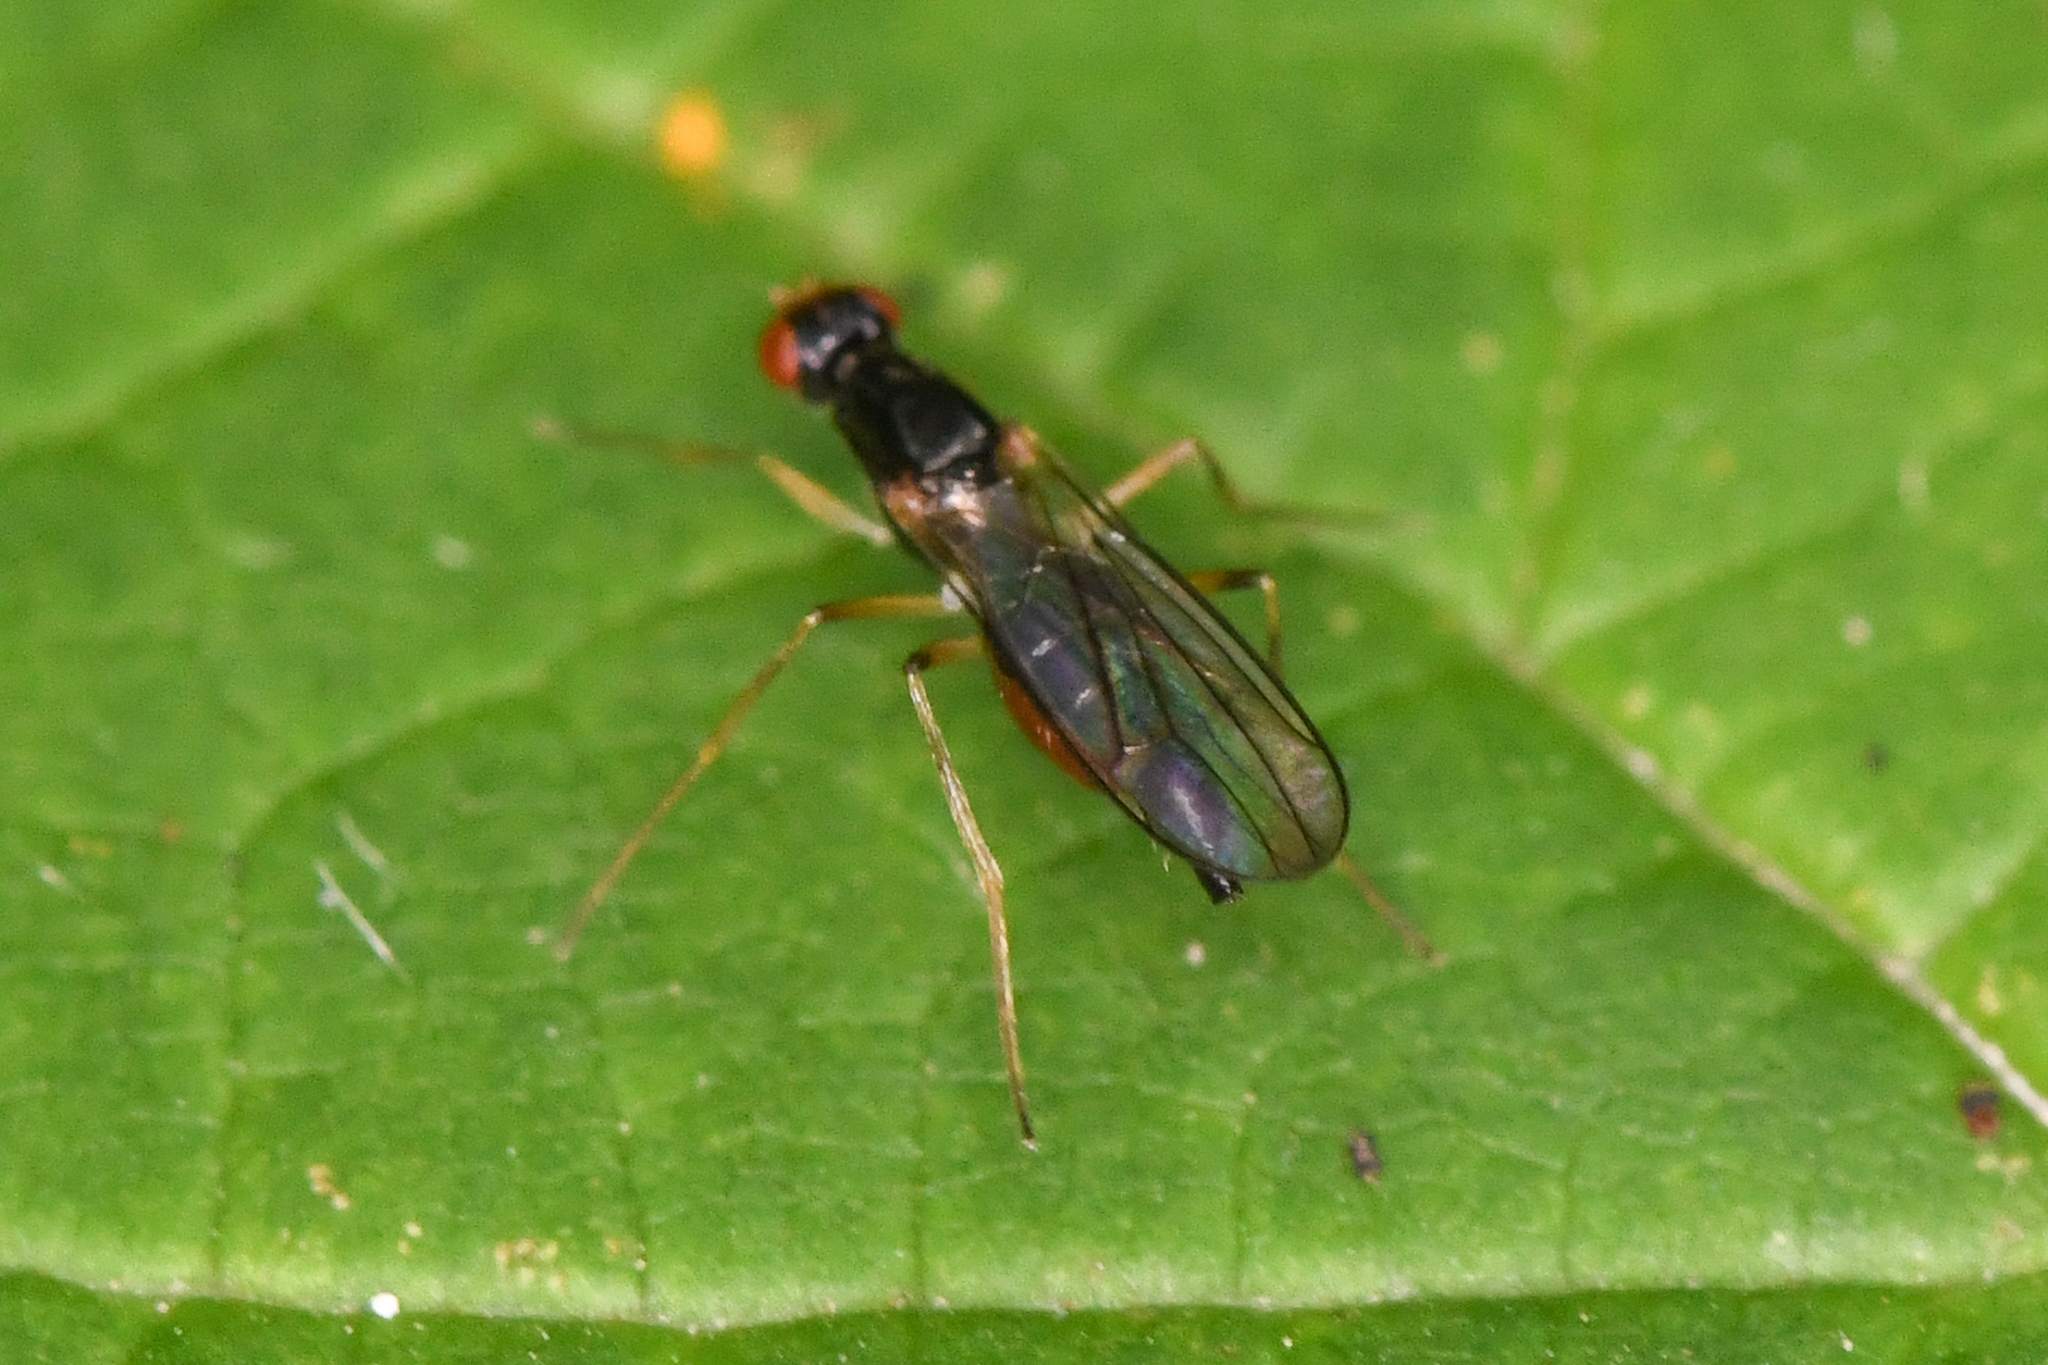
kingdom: Animalia
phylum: Arthropoda
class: Insecta
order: Diptera
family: Strongylophthalmyiidae
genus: Strongylophthalmyia
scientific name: Strongylophthalmyia angustipennis
